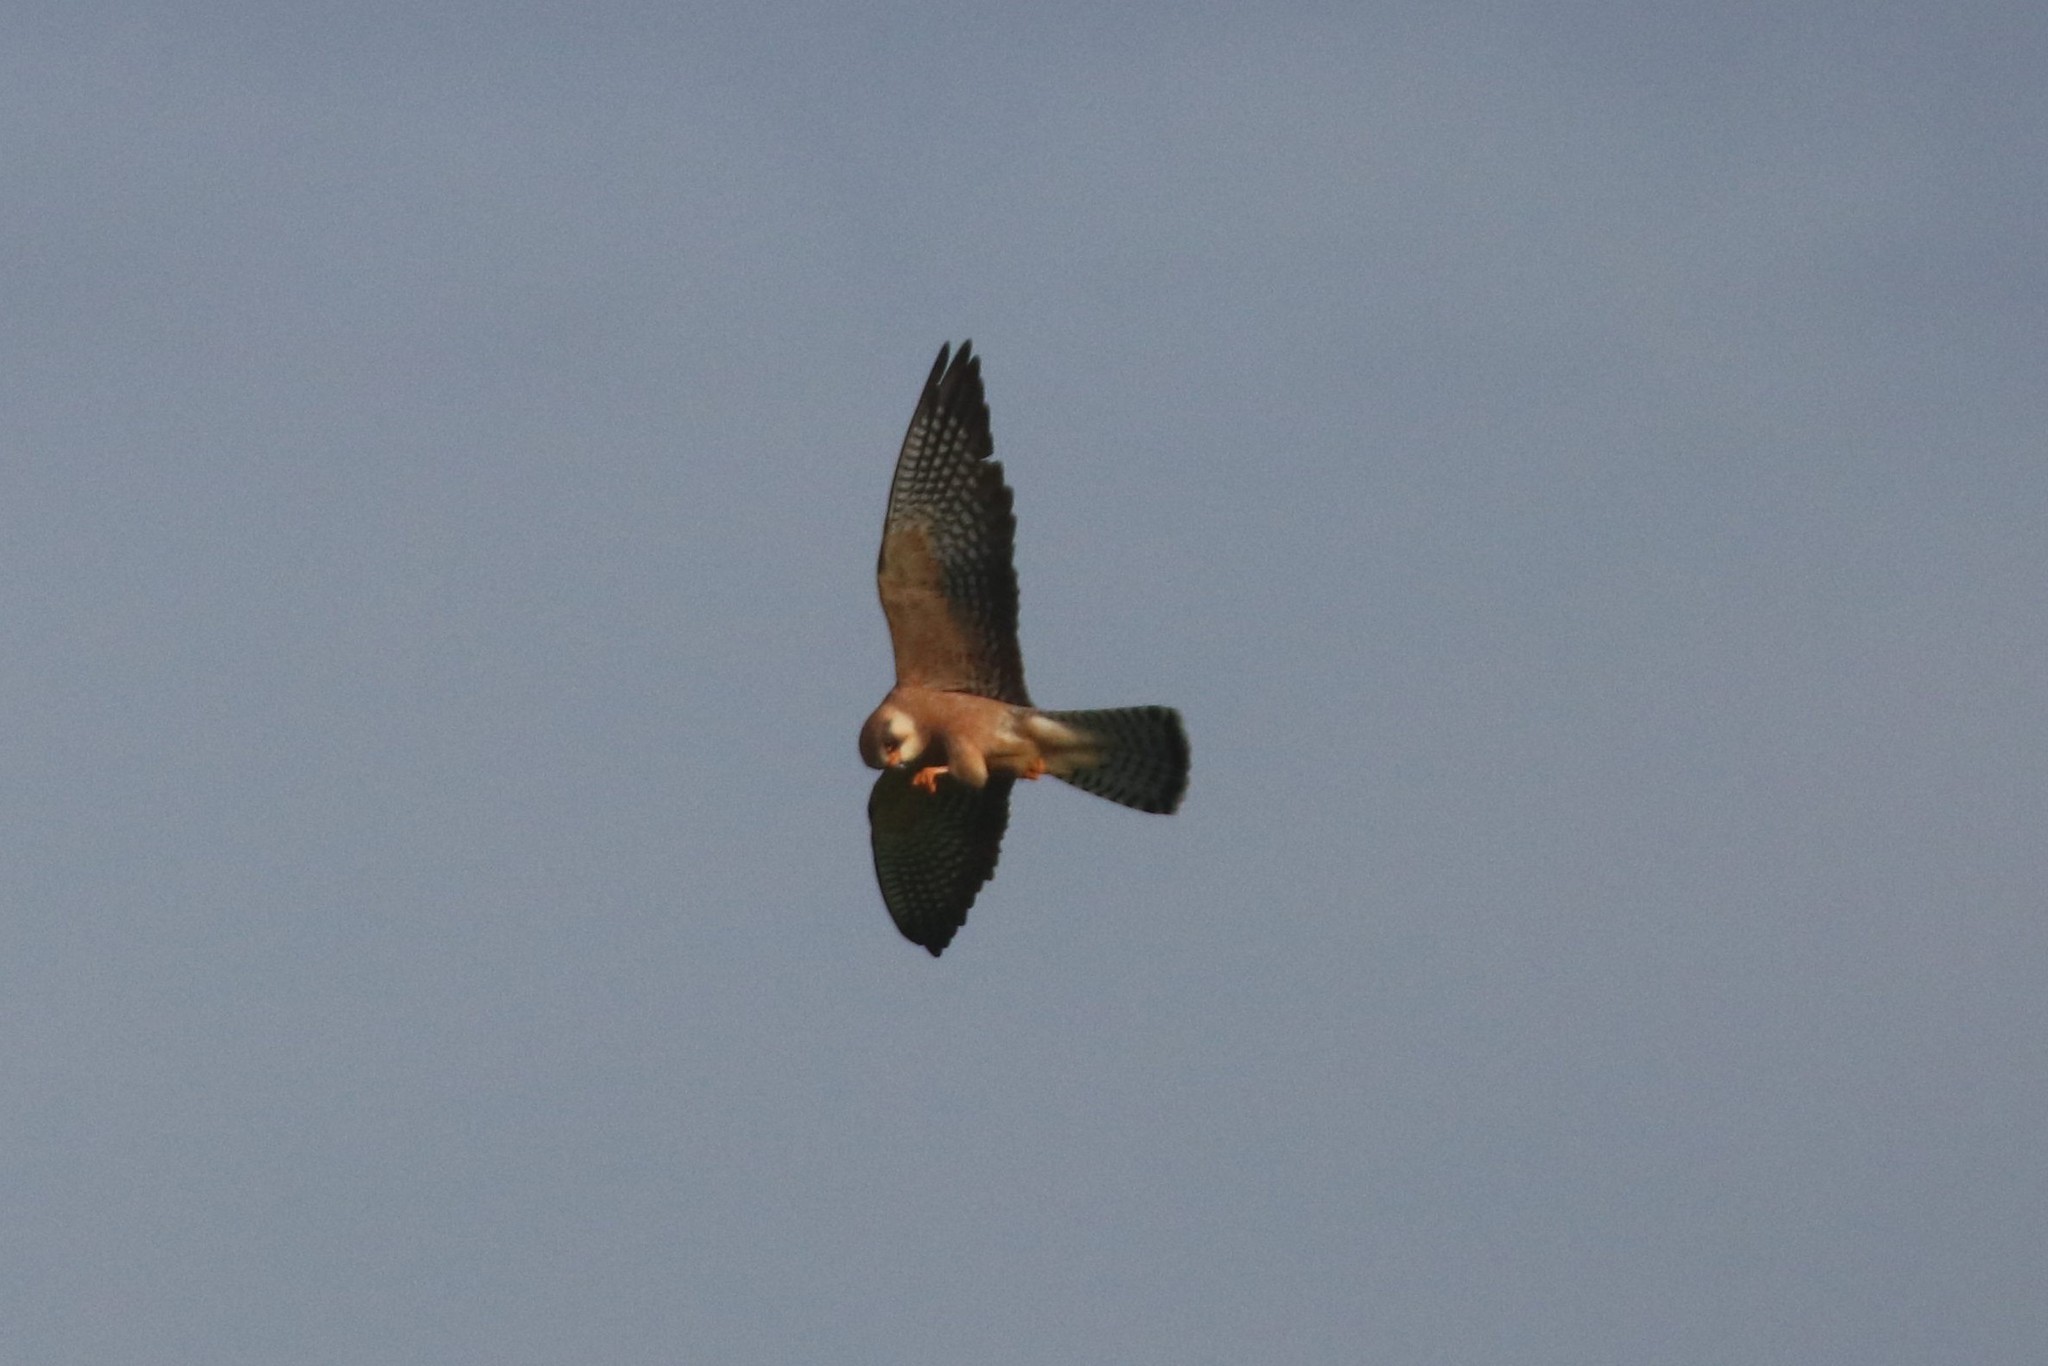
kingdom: Animalia
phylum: Chordata
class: Aves
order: Falconiformes
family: Falconidae
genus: Falco
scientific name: Falco vespertinus
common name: Red-footed falcon
